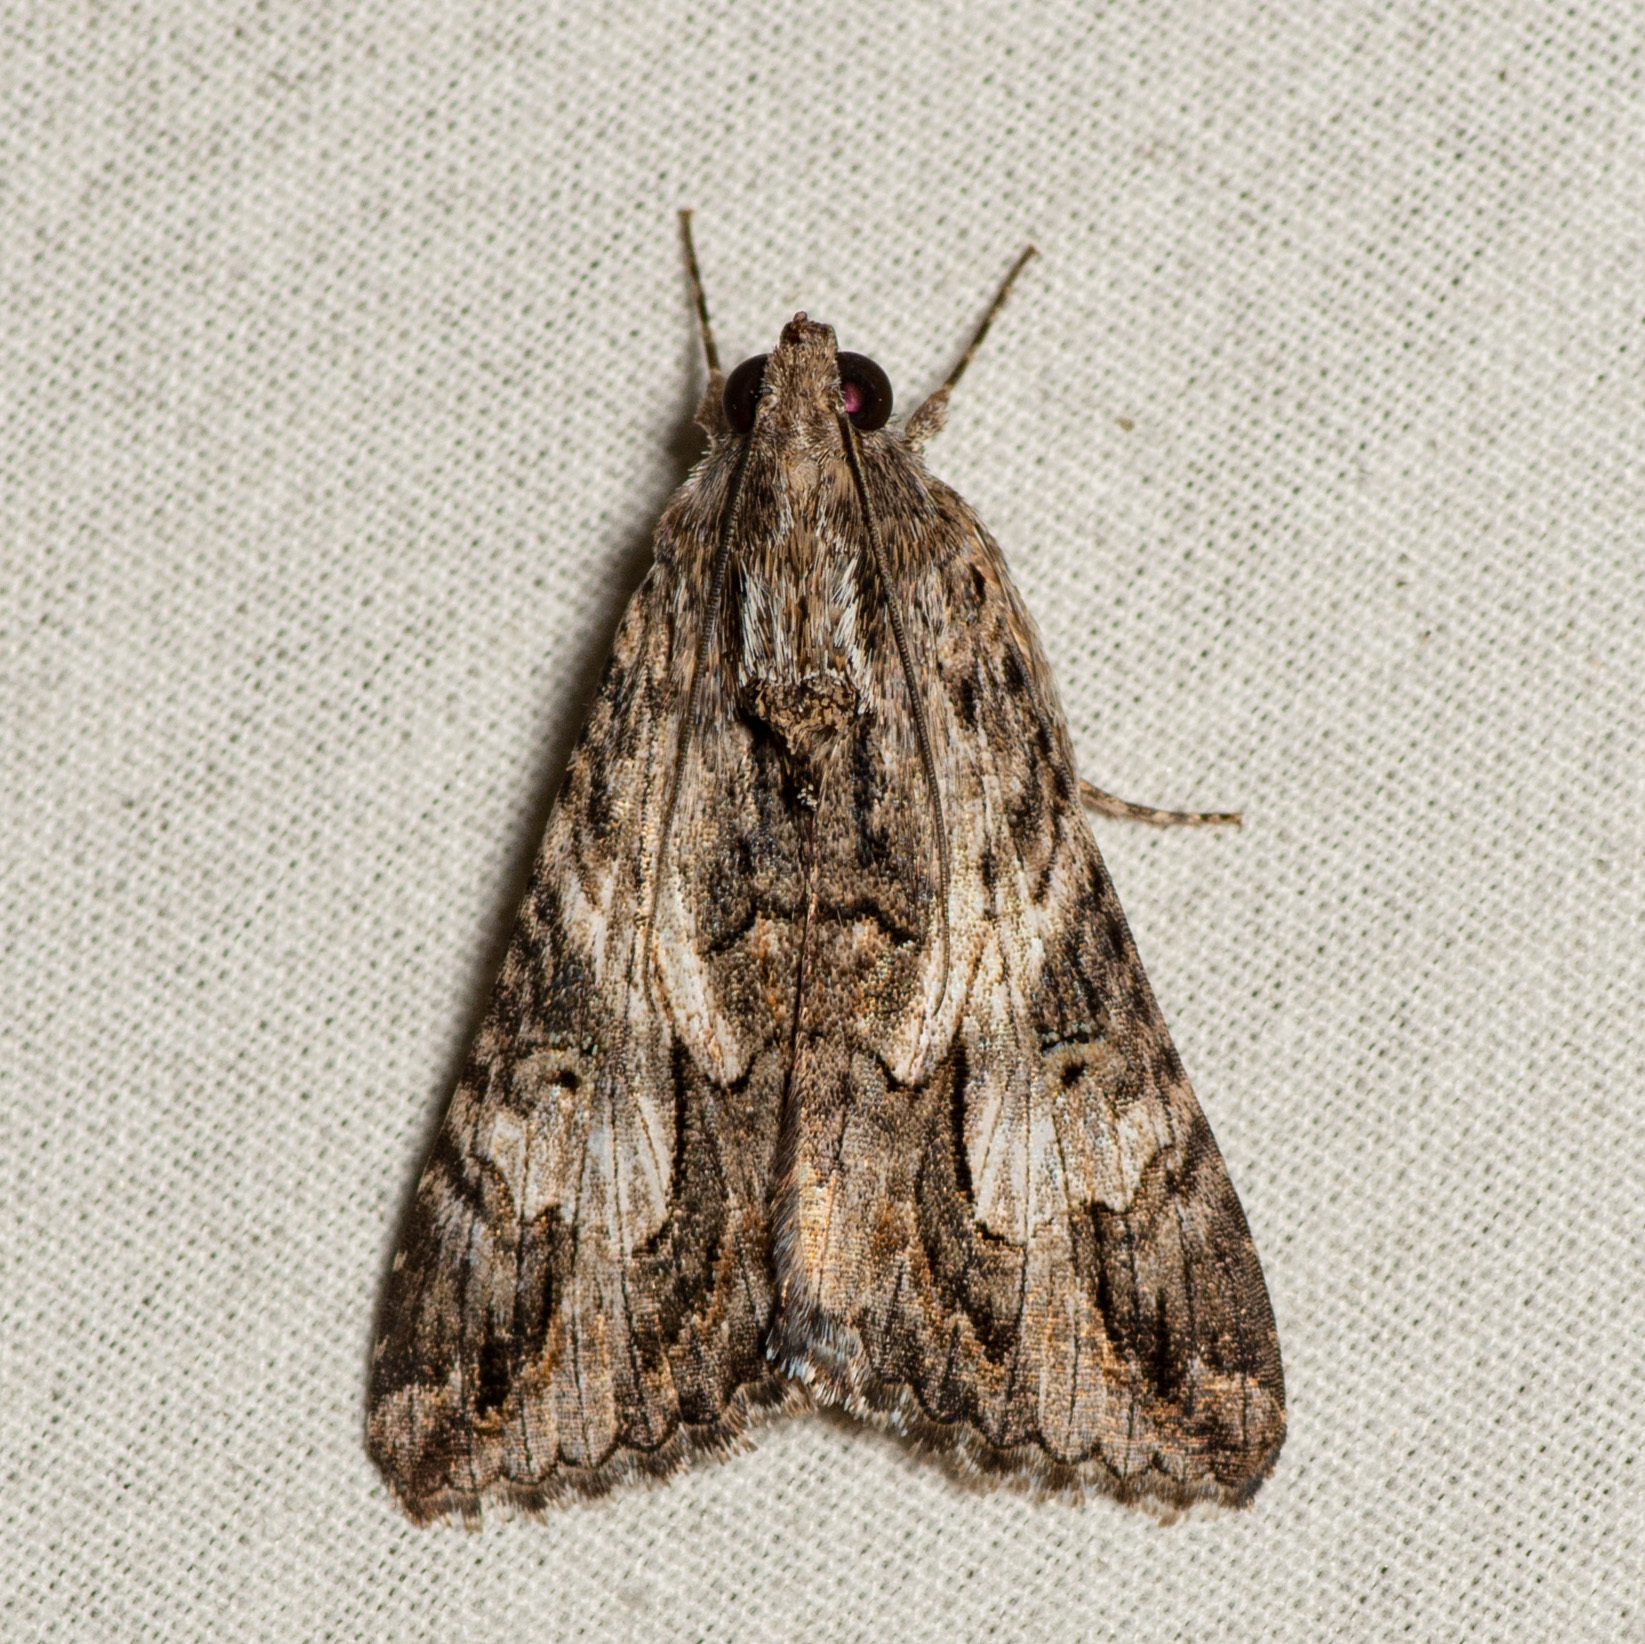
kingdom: Animalia
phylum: Arthropoda
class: Insecta
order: Lepidoptera
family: Erebidae
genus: Melipotis
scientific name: Melipotis jucunda
